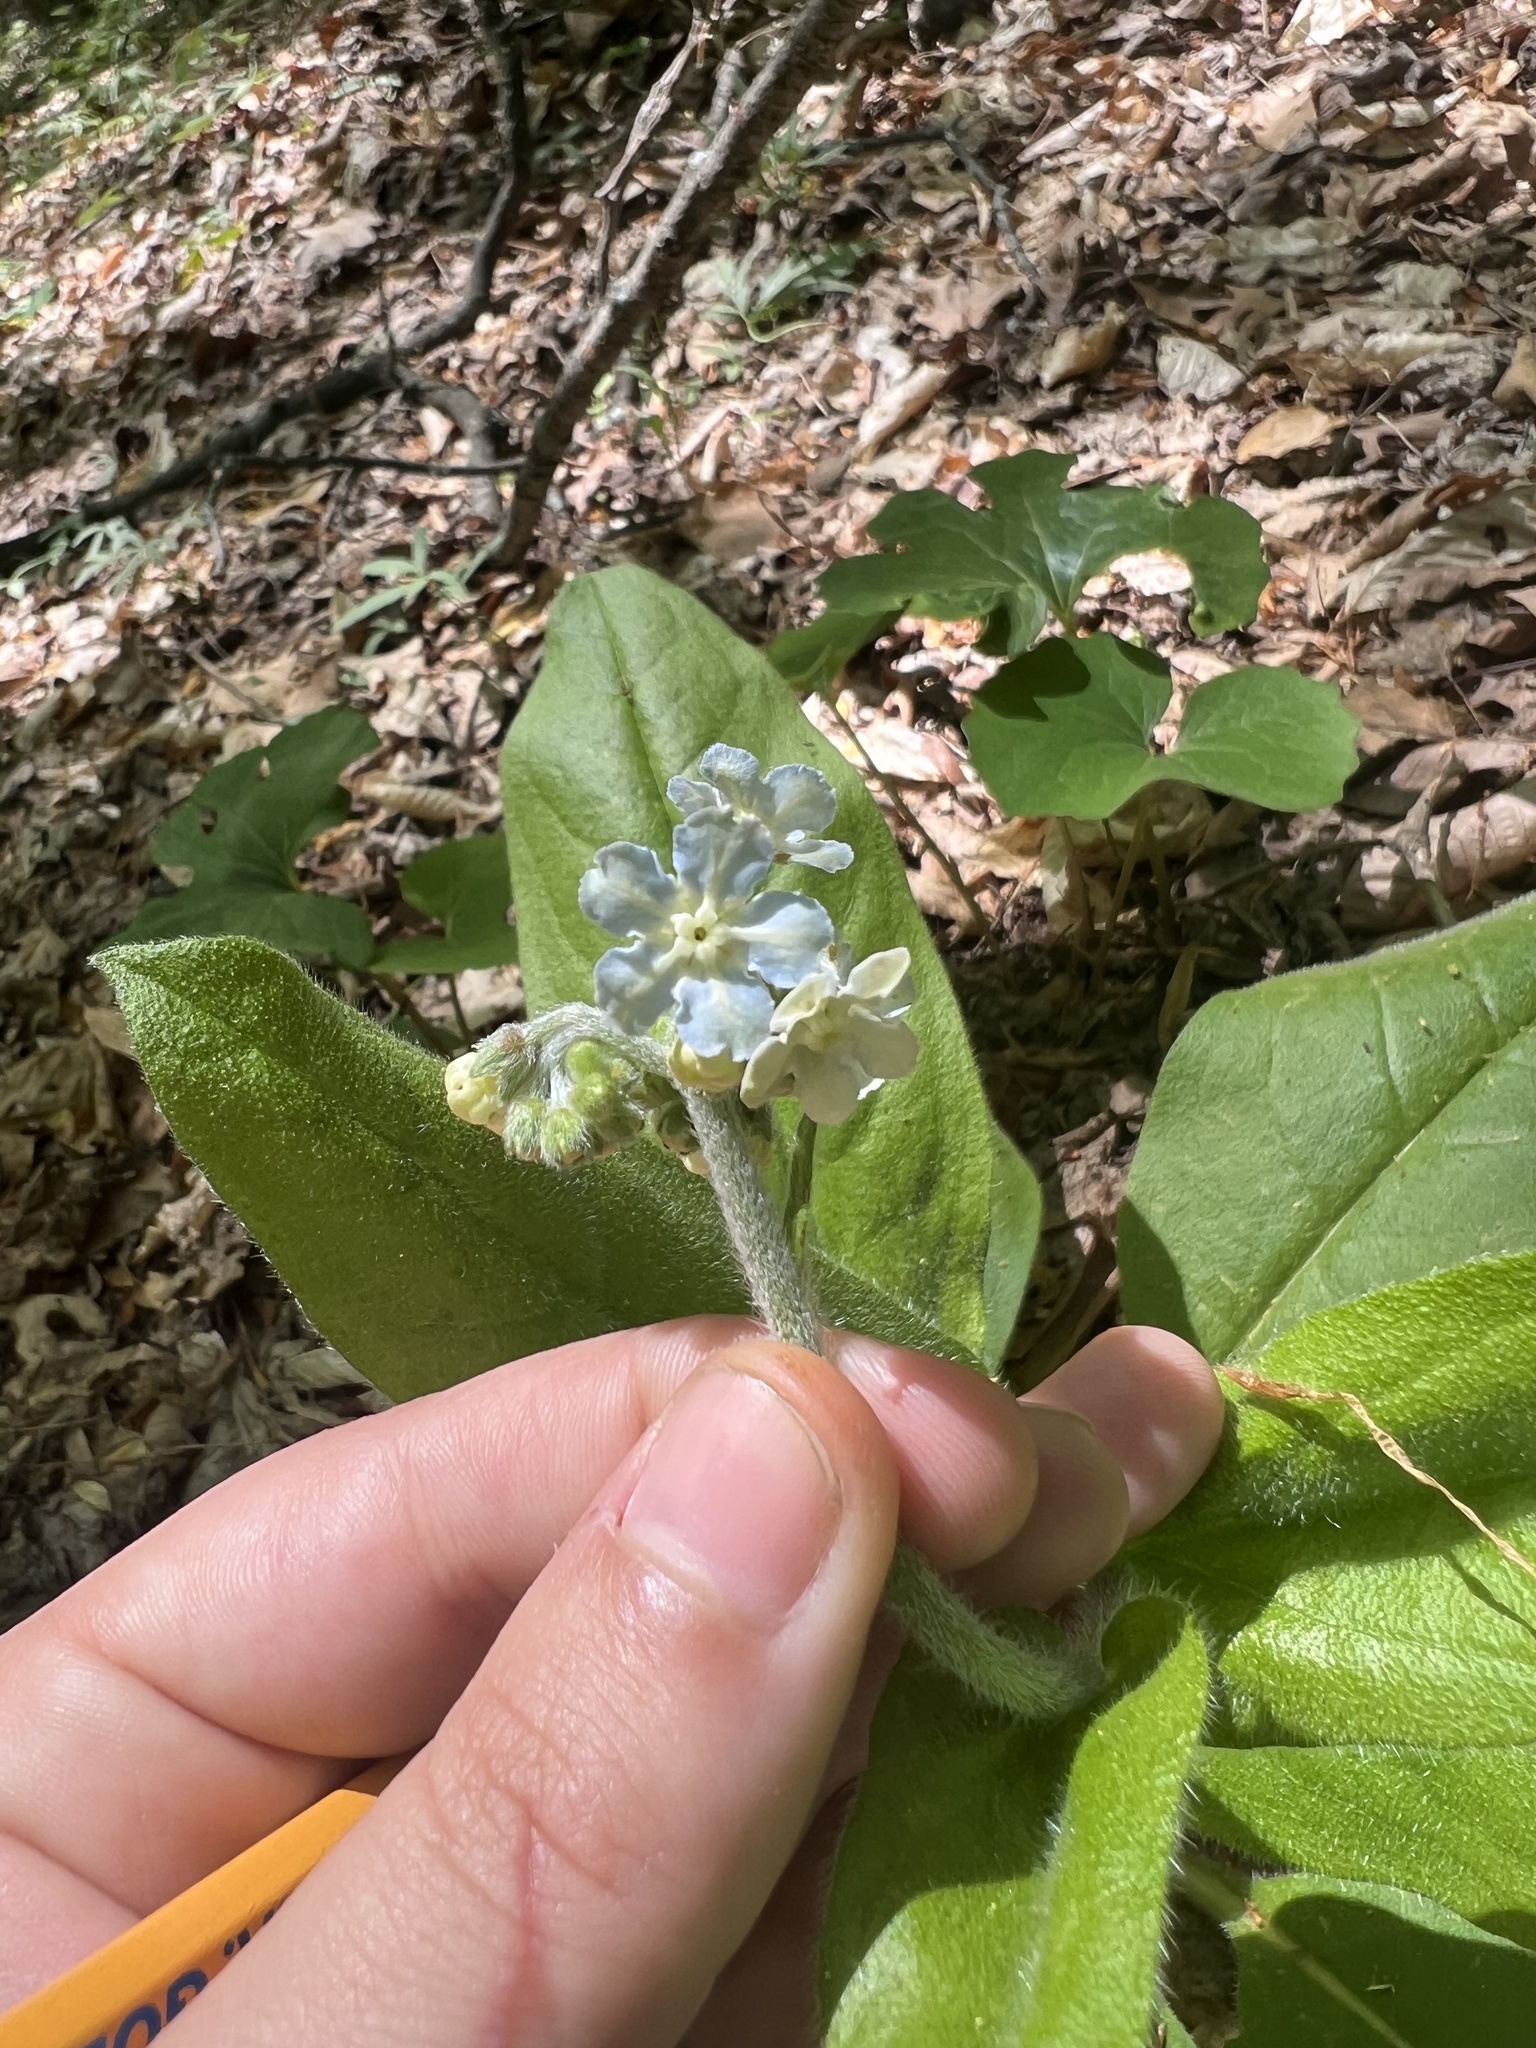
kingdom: Plantae
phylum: Tracheophyta
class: Magnoliopsida
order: Boraginales
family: Boraginaceae
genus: Andersonglossum
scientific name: Andersonglossum virginianum
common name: Wild comfrey
